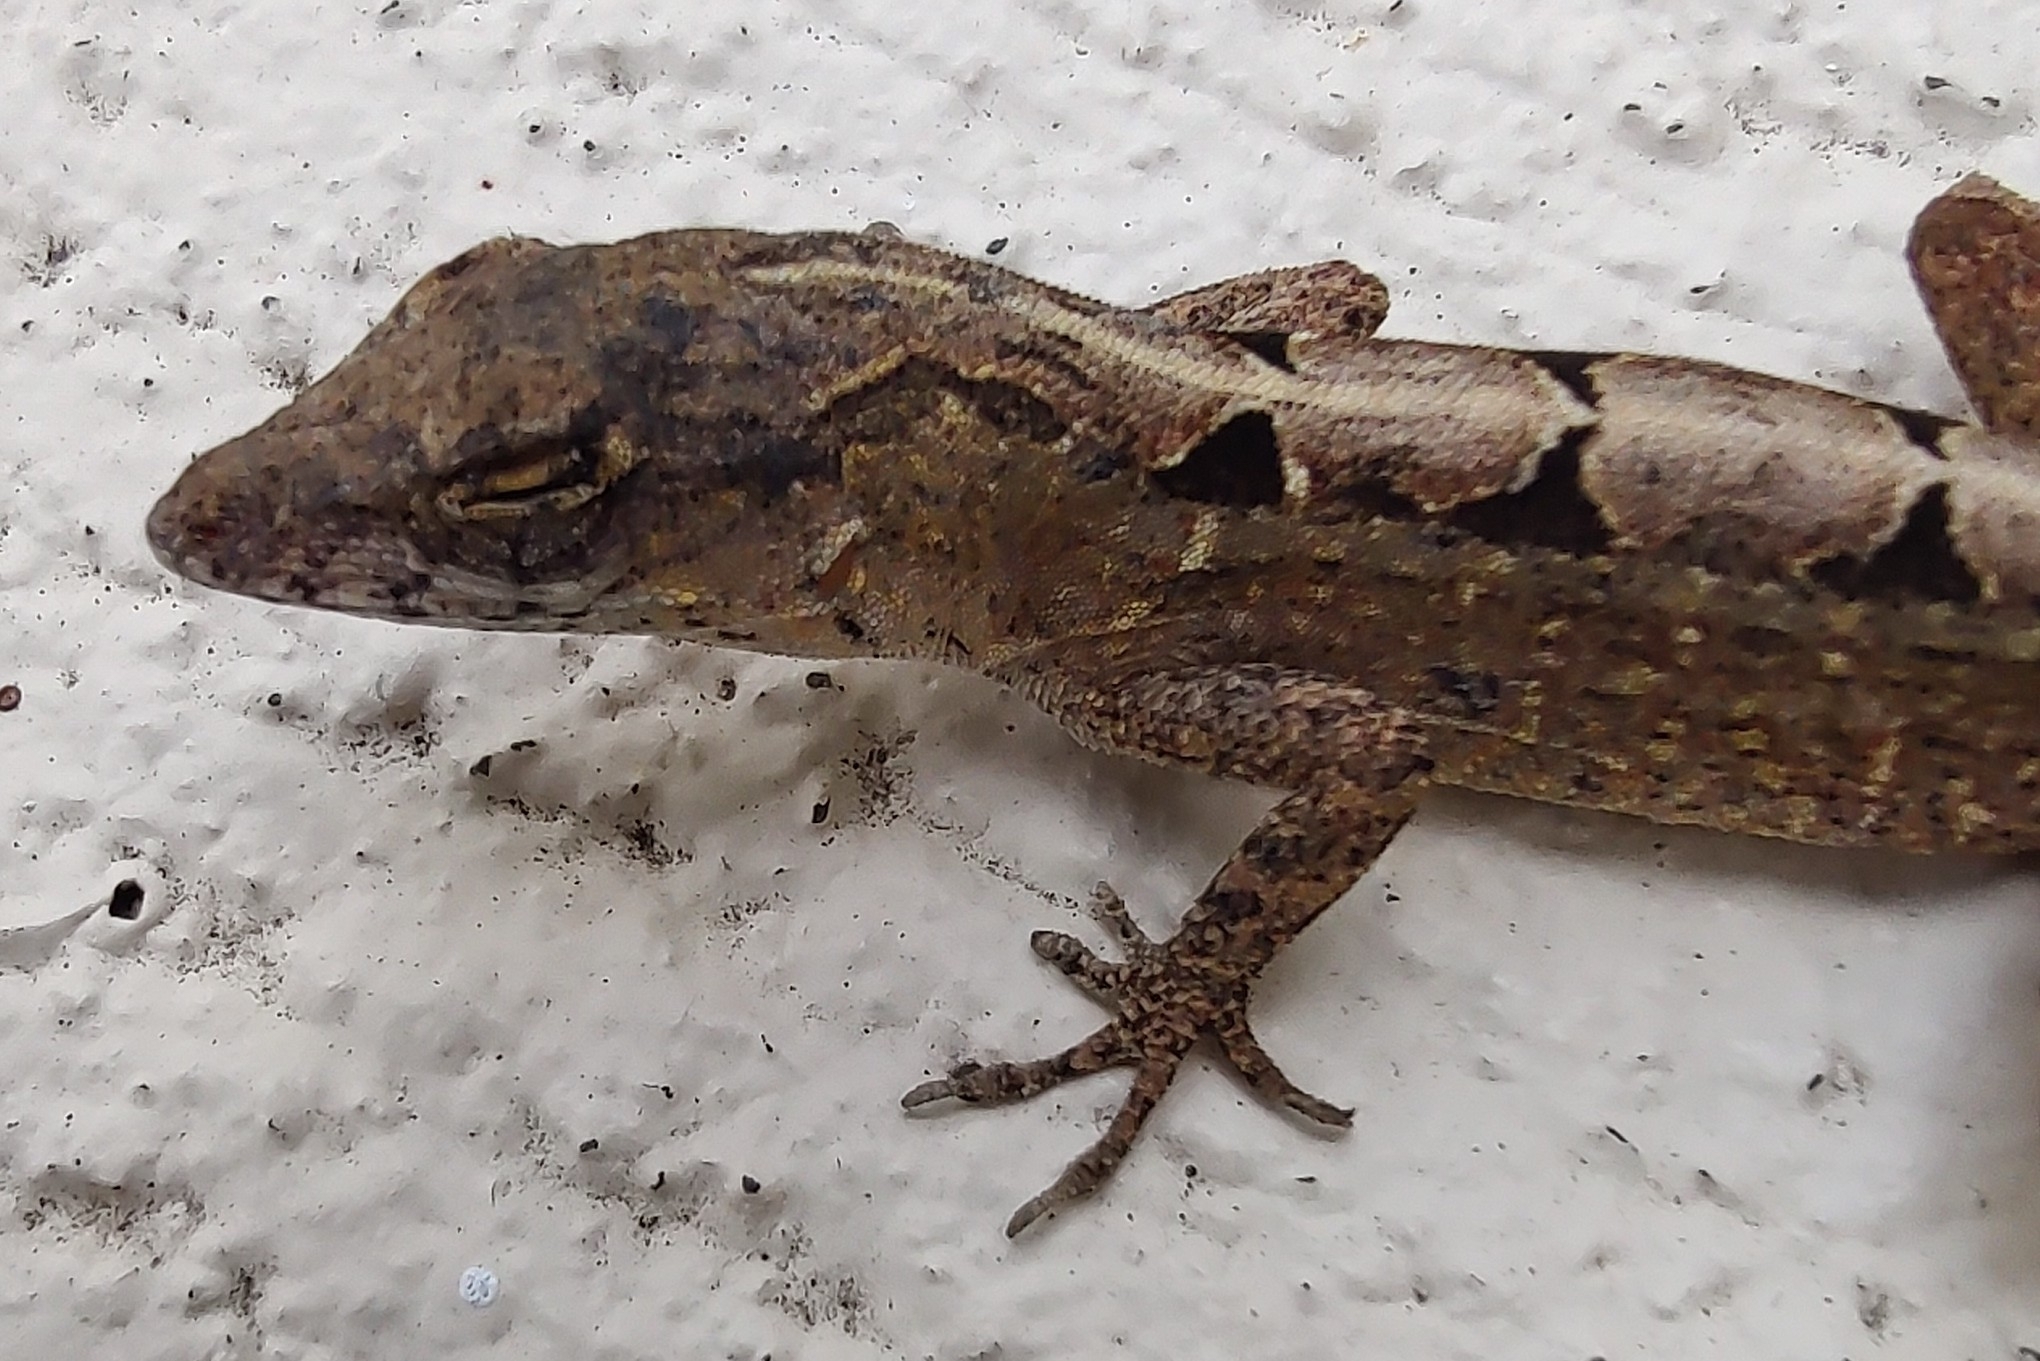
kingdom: Animalia
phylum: Chordata
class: Squamata
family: Dactyloidae
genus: Anolis
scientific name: Anolis sagrei
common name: Brown anole
